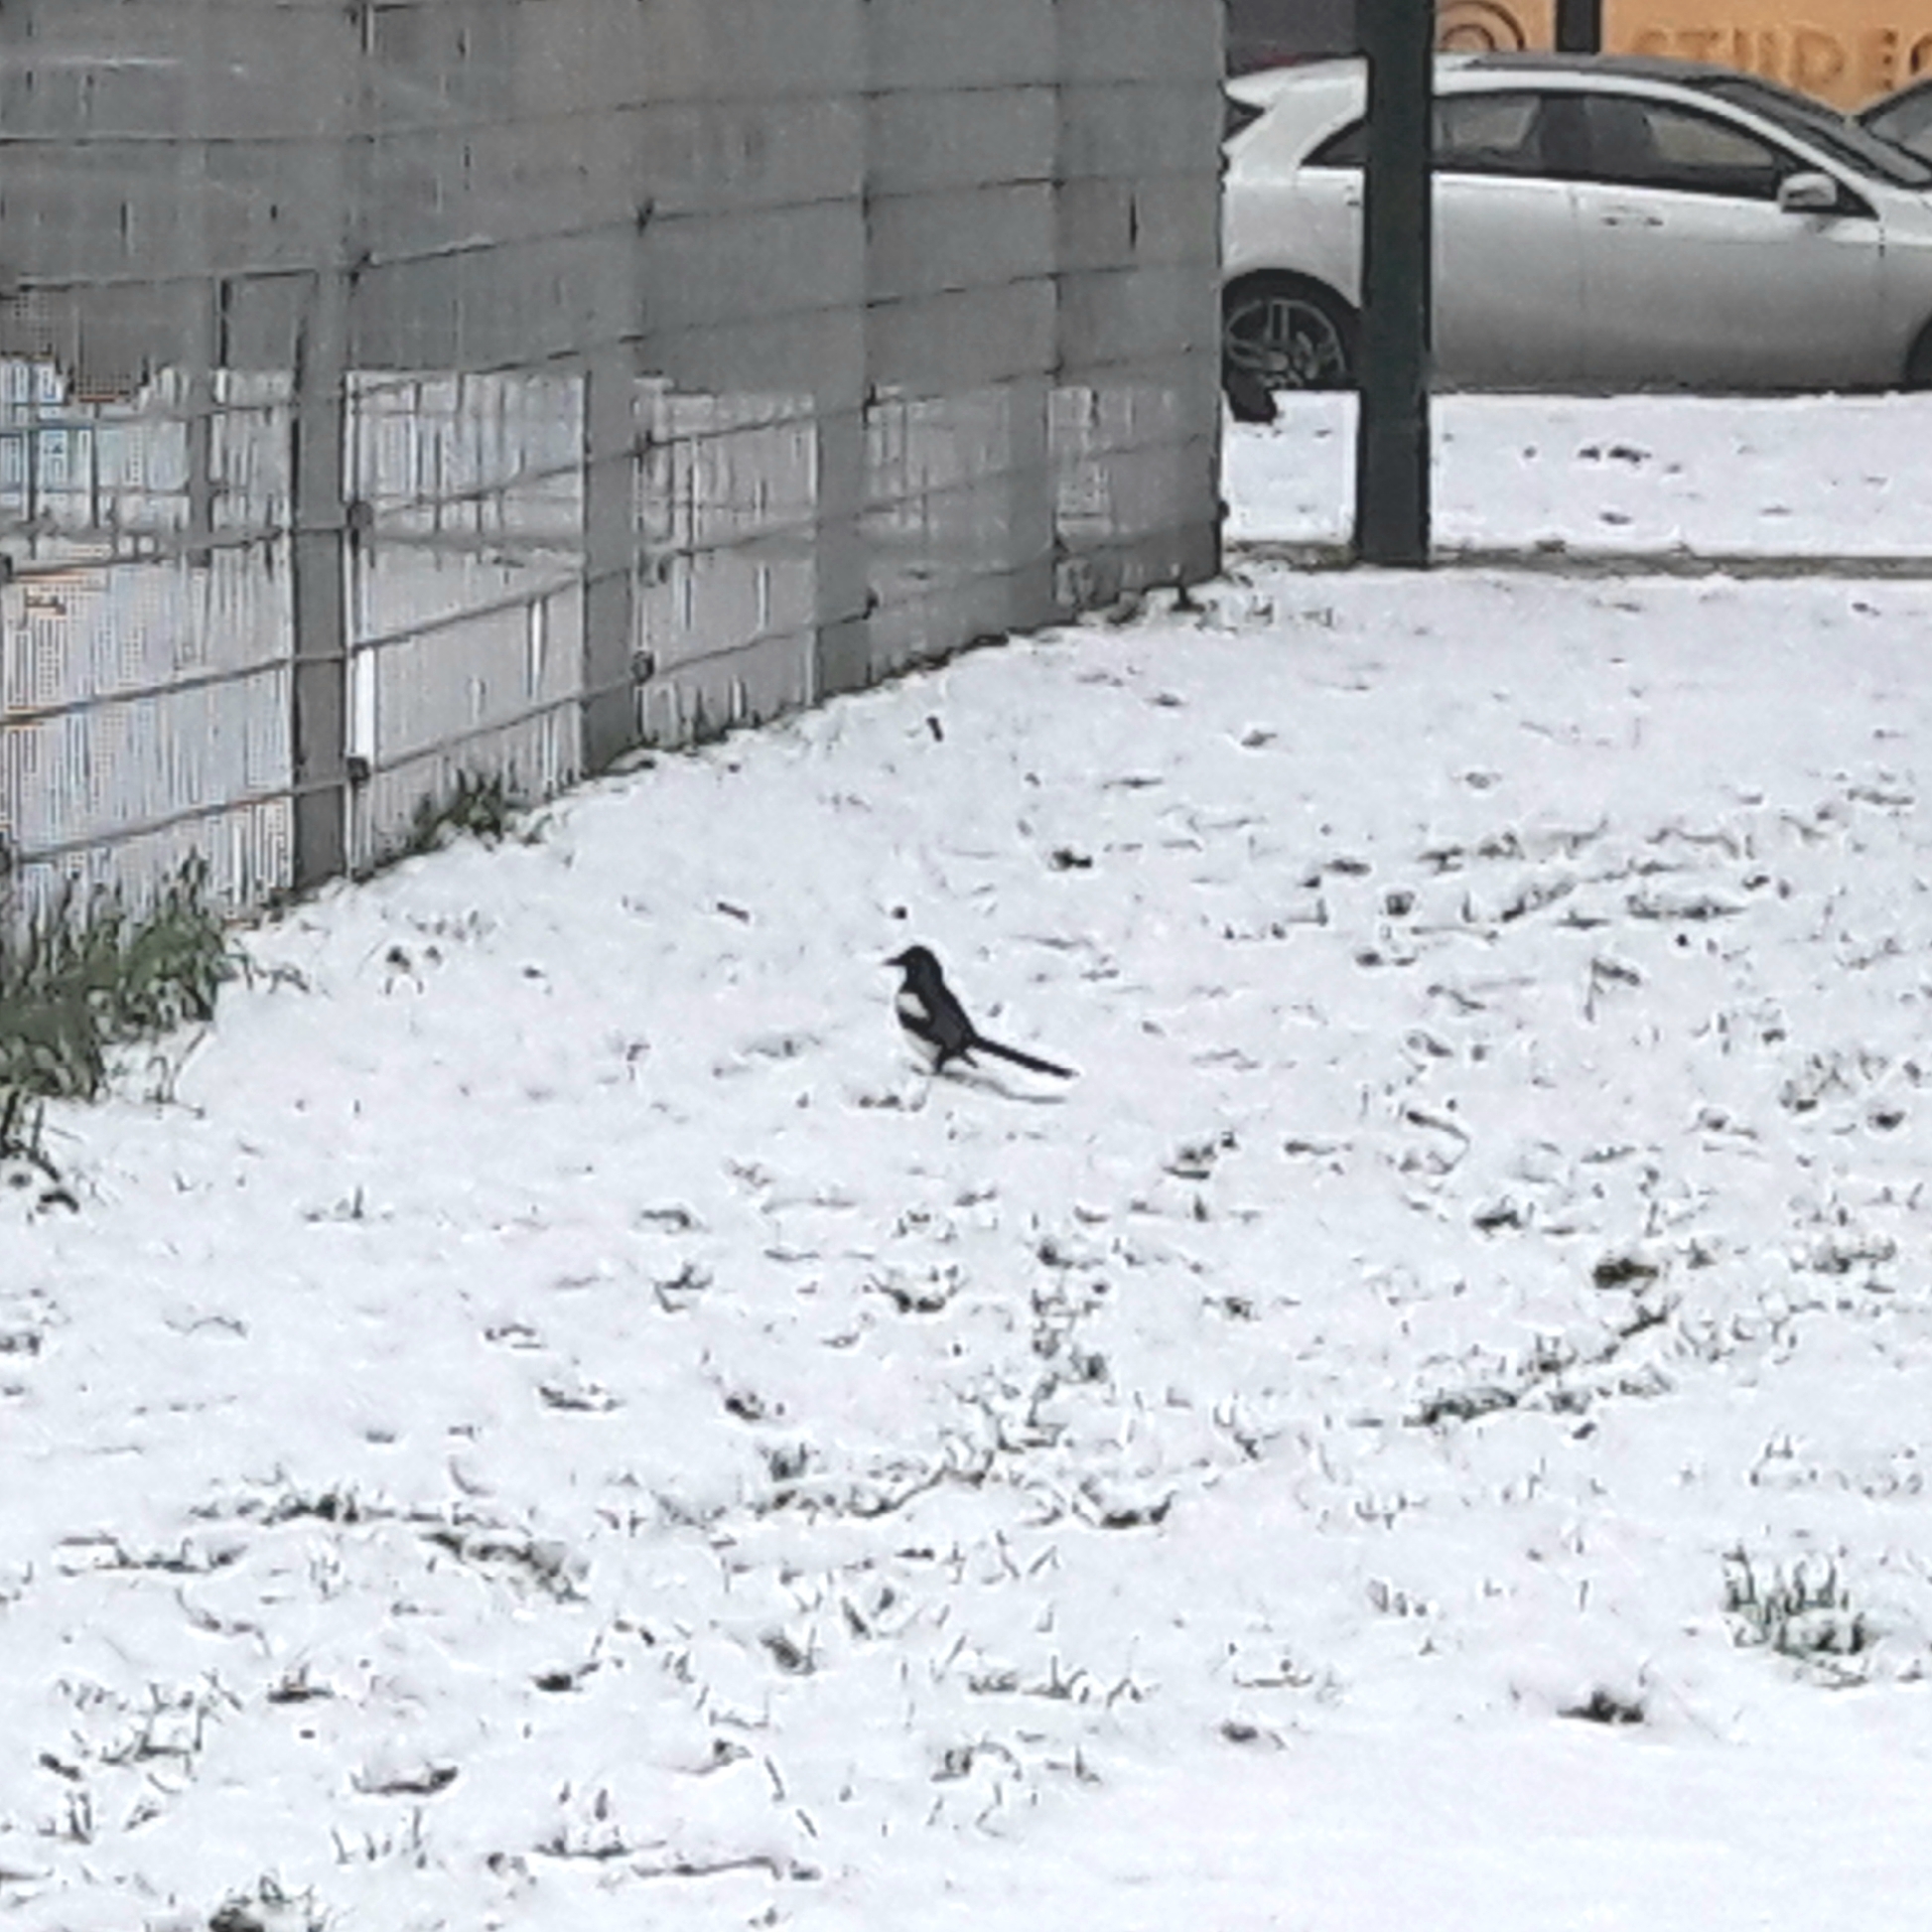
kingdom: Animalia
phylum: Chordata
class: Aves
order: Passeriformes
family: Corvidae
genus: Pica
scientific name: Pica pica
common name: Eurasian magpie
